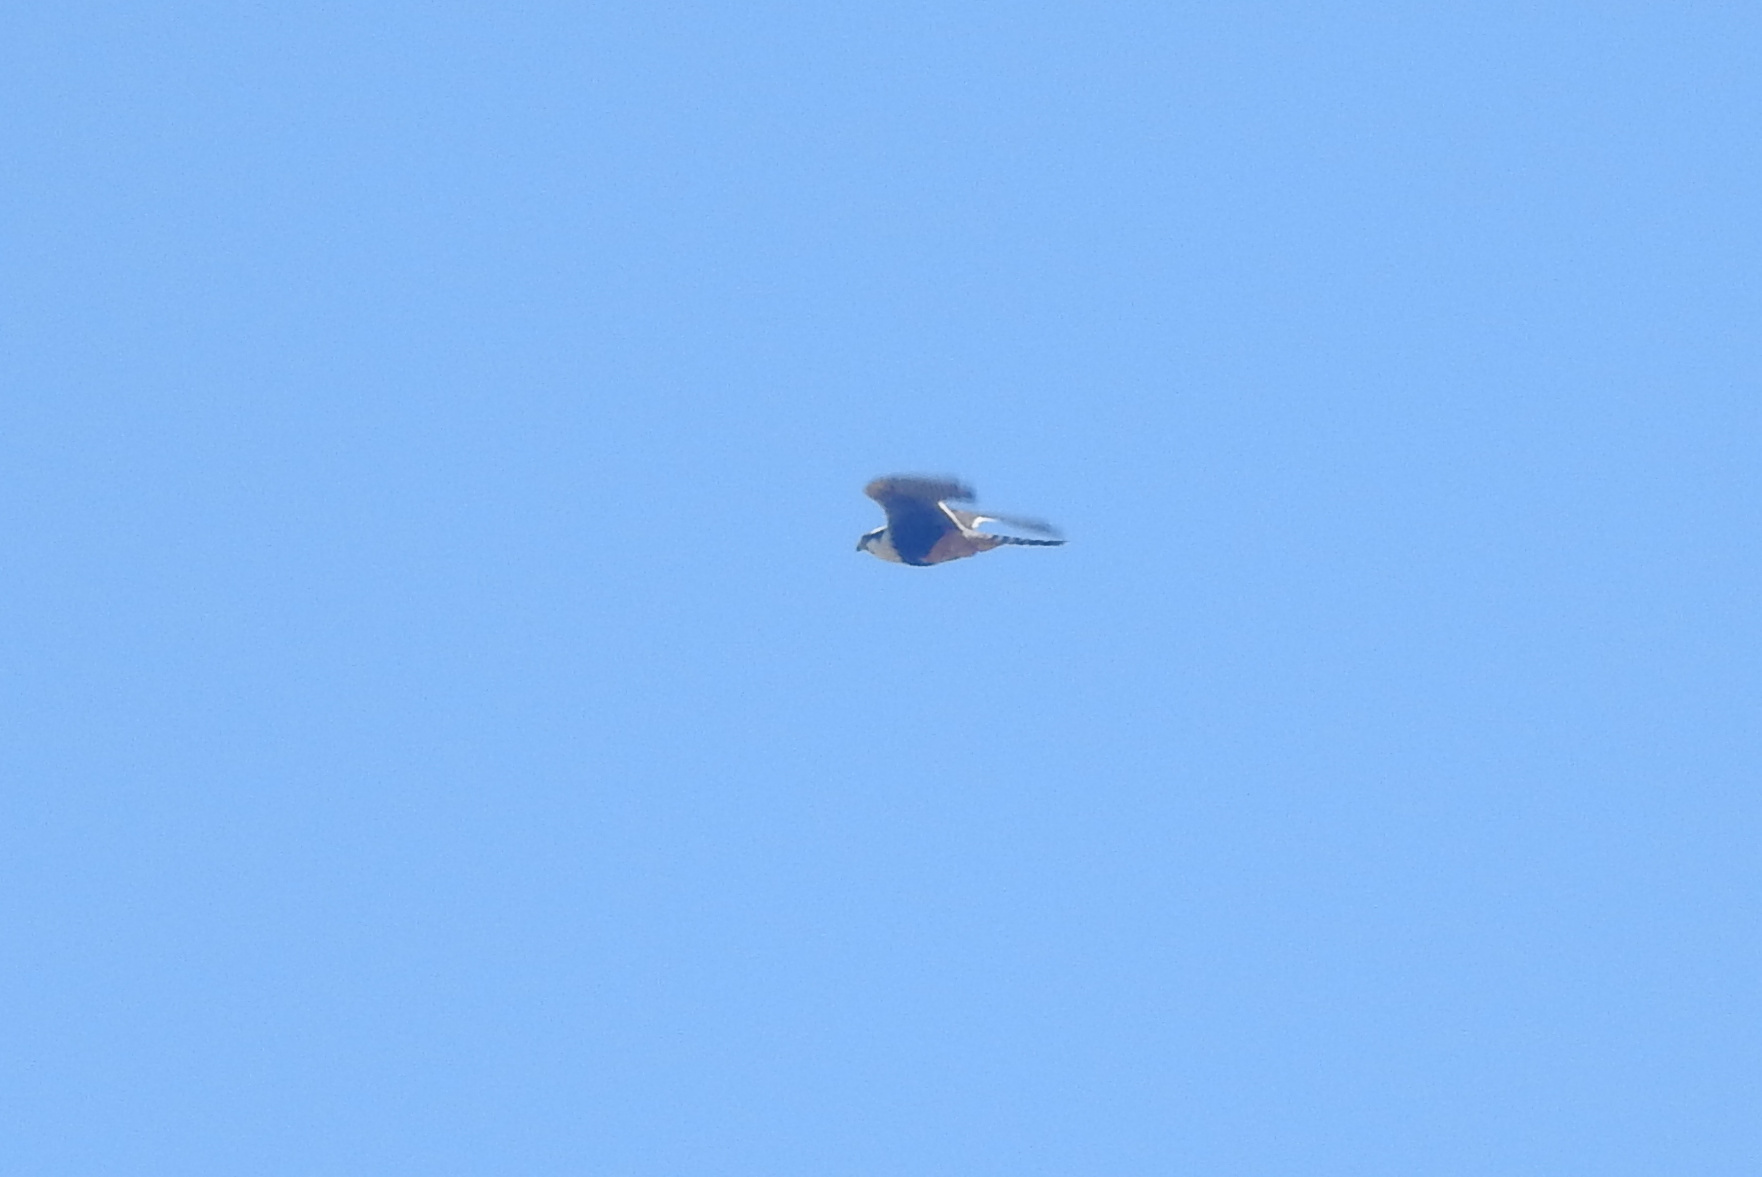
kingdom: Animalia
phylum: Chordata
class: Aves
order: Falconiformes
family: Falconidae
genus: Falco
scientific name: Falco femoralis
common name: Aplomado falcon
